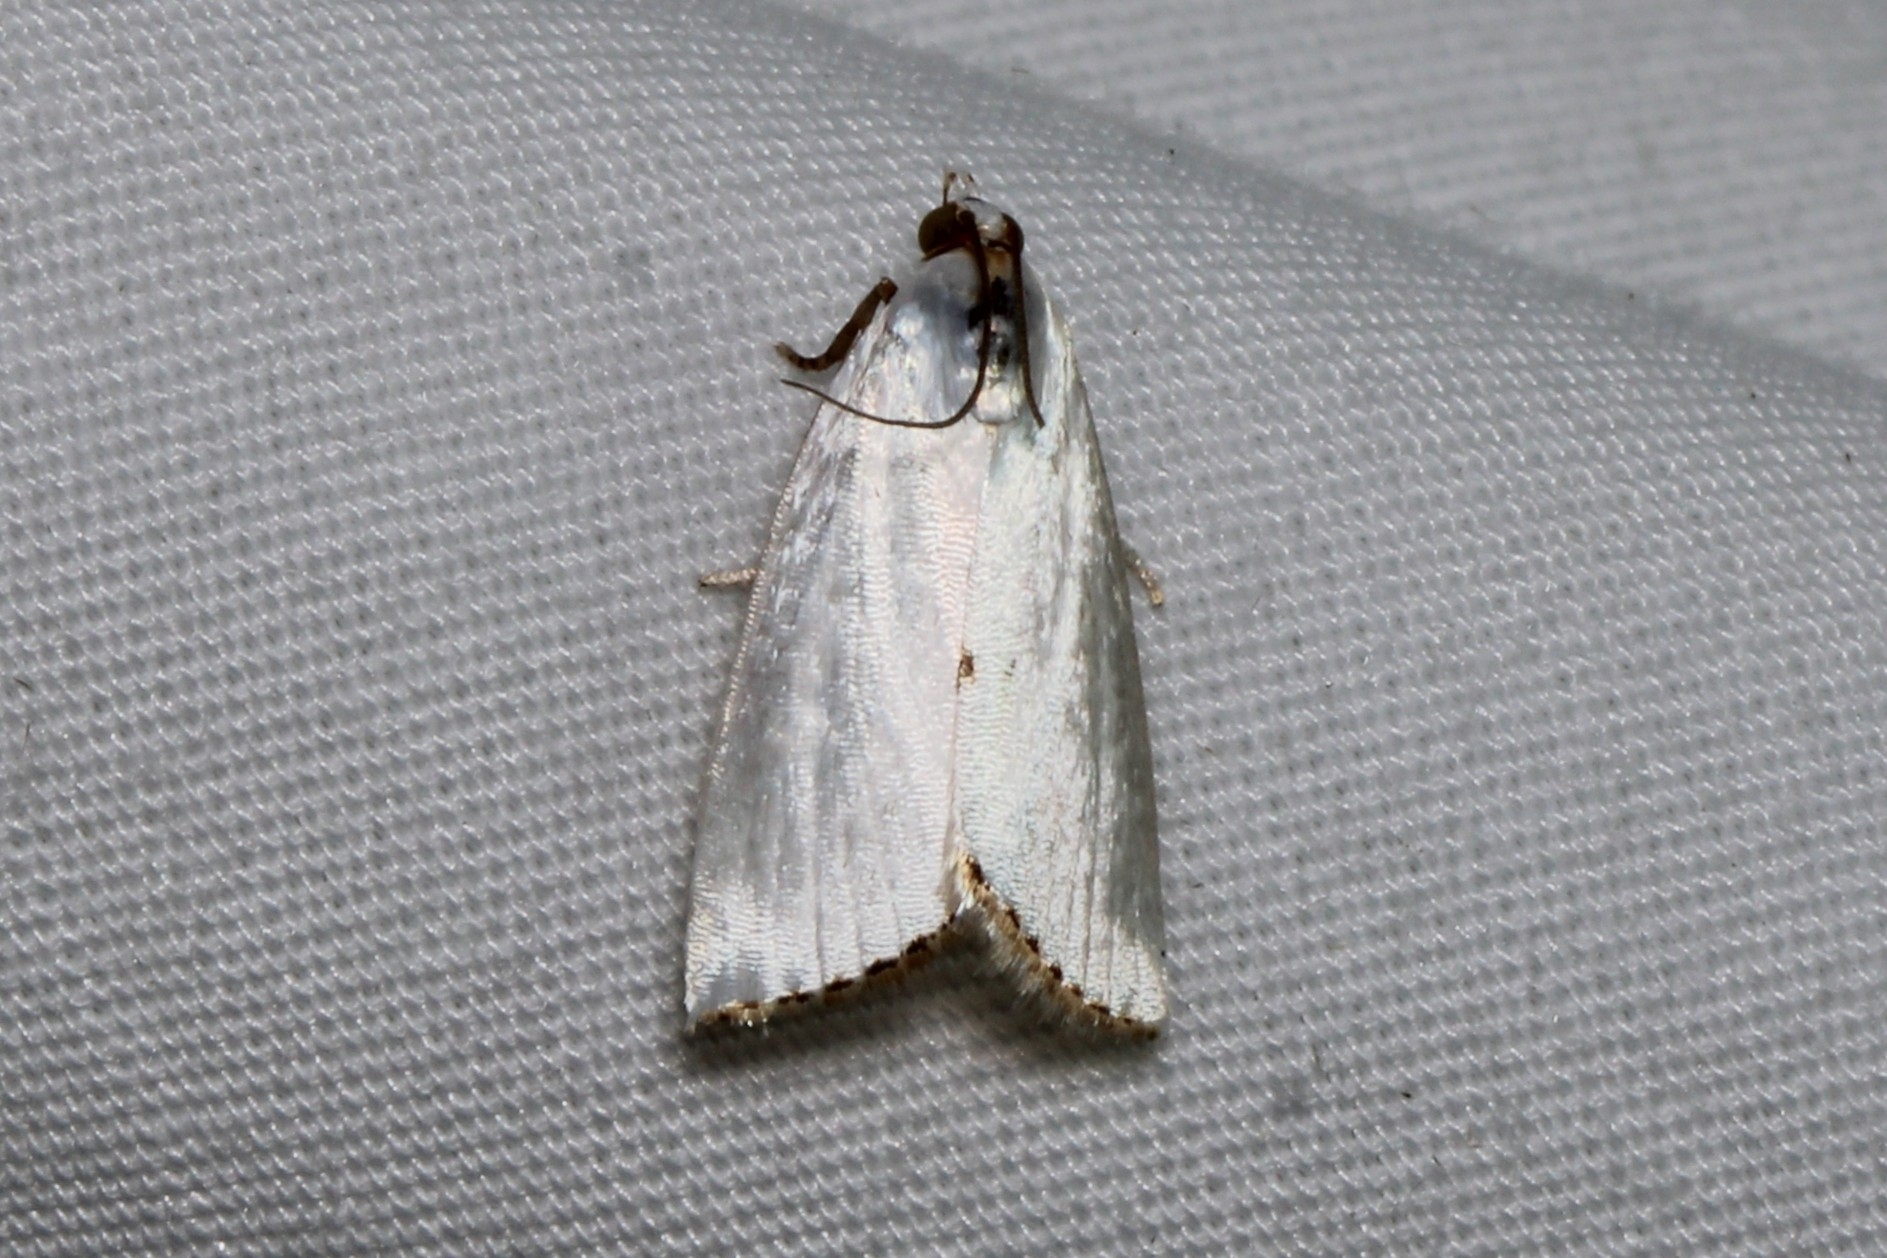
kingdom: Animalia
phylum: Arthropoda
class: Insecta
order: Lepidoptera
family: Crambidae
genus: Argyria
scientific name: Argyria nivalis
